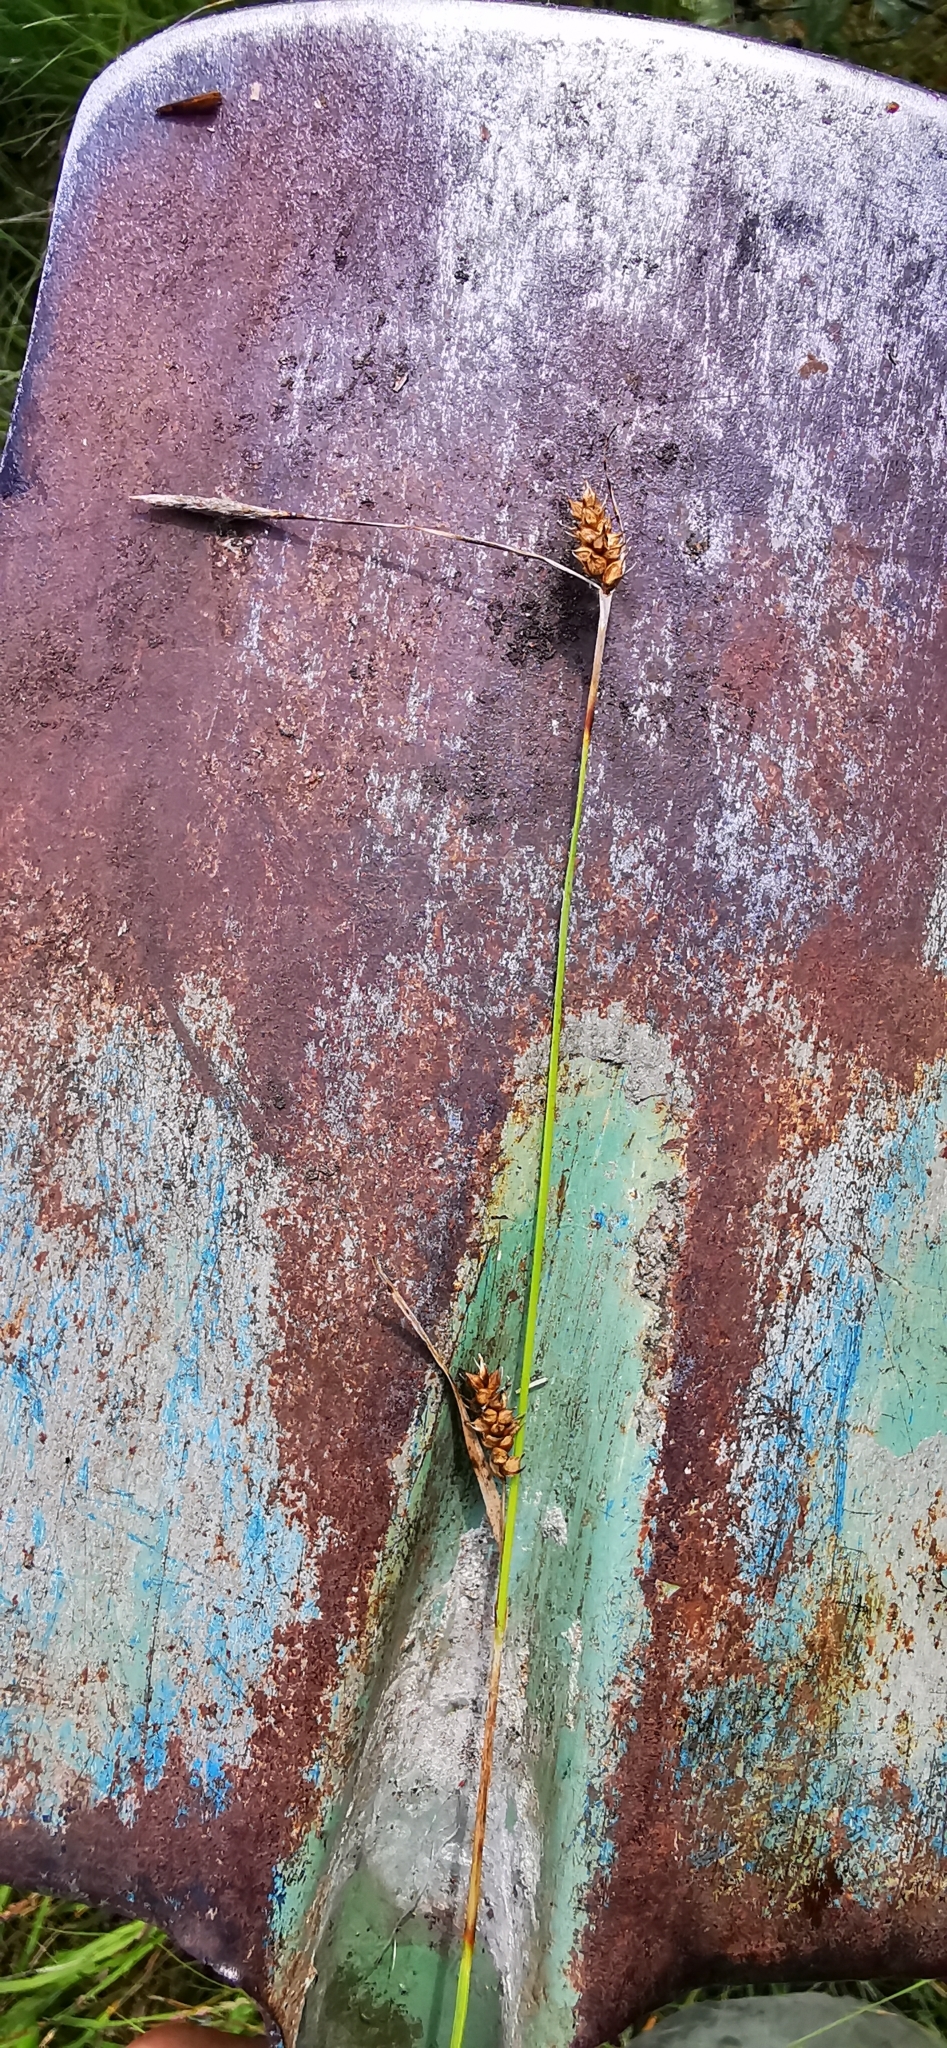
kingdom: Plantae
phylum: Tracheophyta
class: Liliopsida
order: Poales
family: Cyperaceae
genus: Carex
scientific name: Carex hostiana
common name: Tawny sedge
